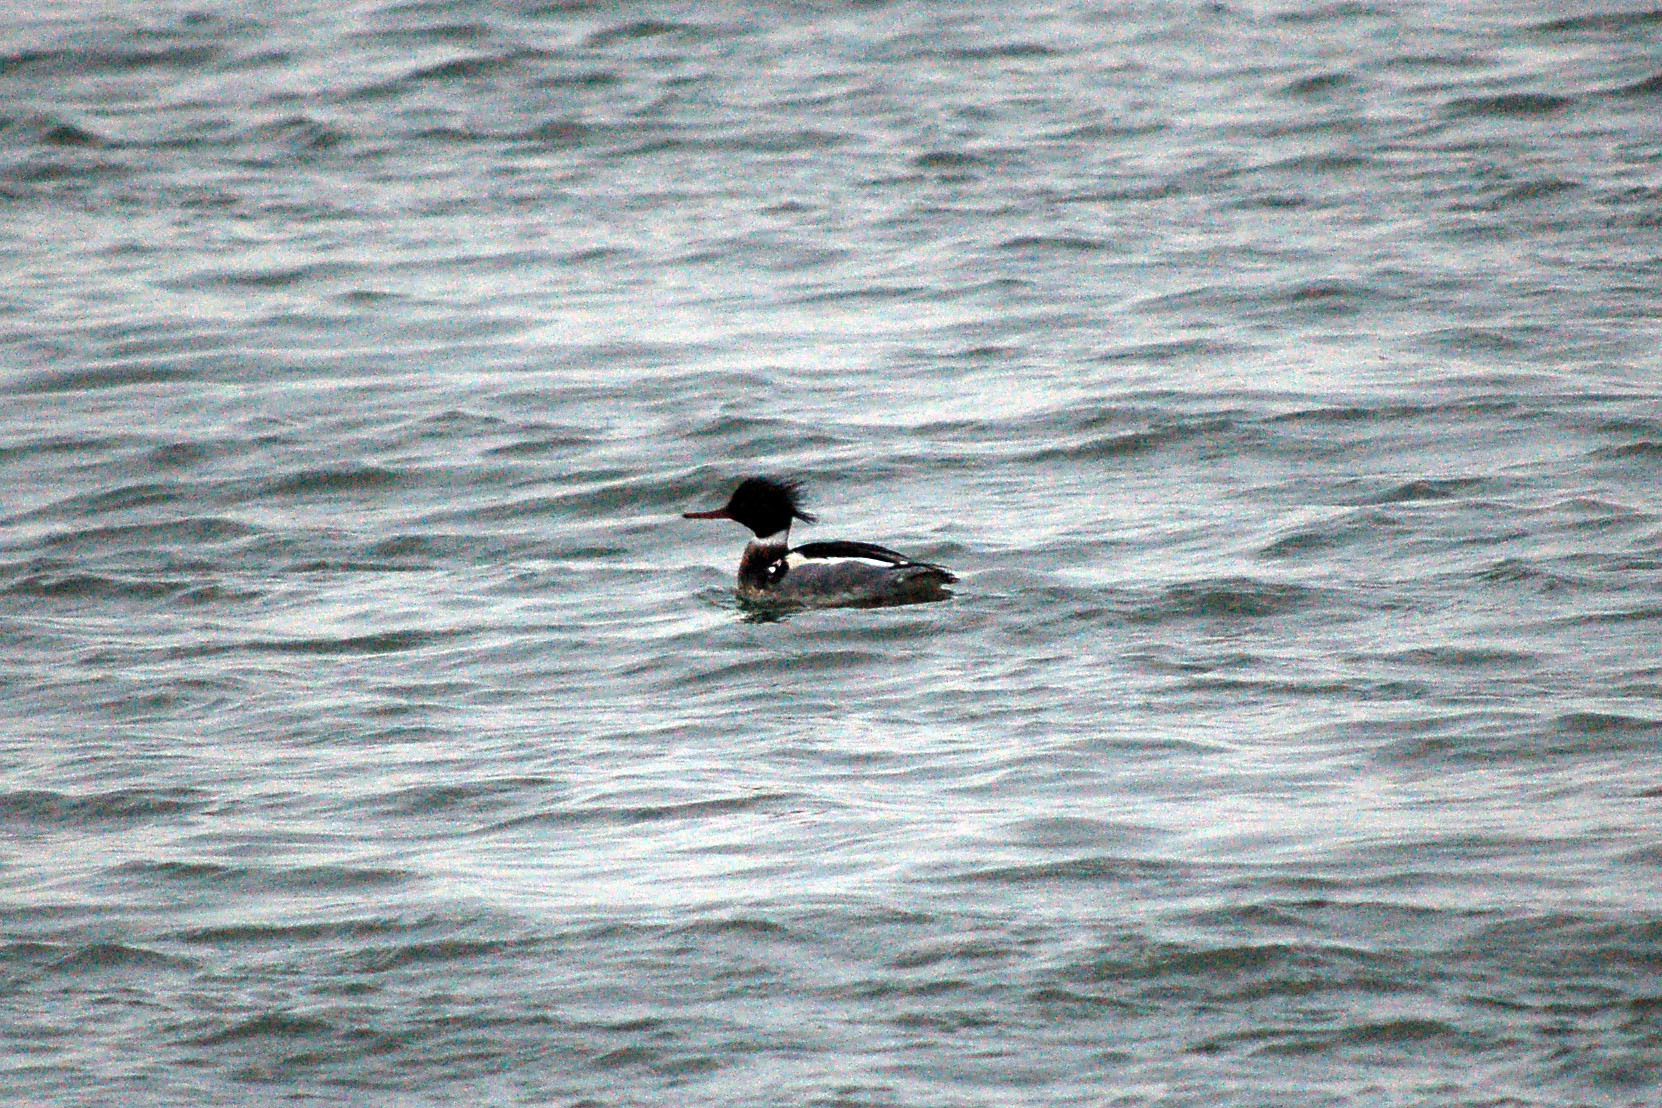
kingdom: Animalia
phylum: Chordata
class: Aves
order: Anseriformes
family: Anatidae
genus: Mergus
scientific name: Mergus serrator
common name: Red-breasted merganser
